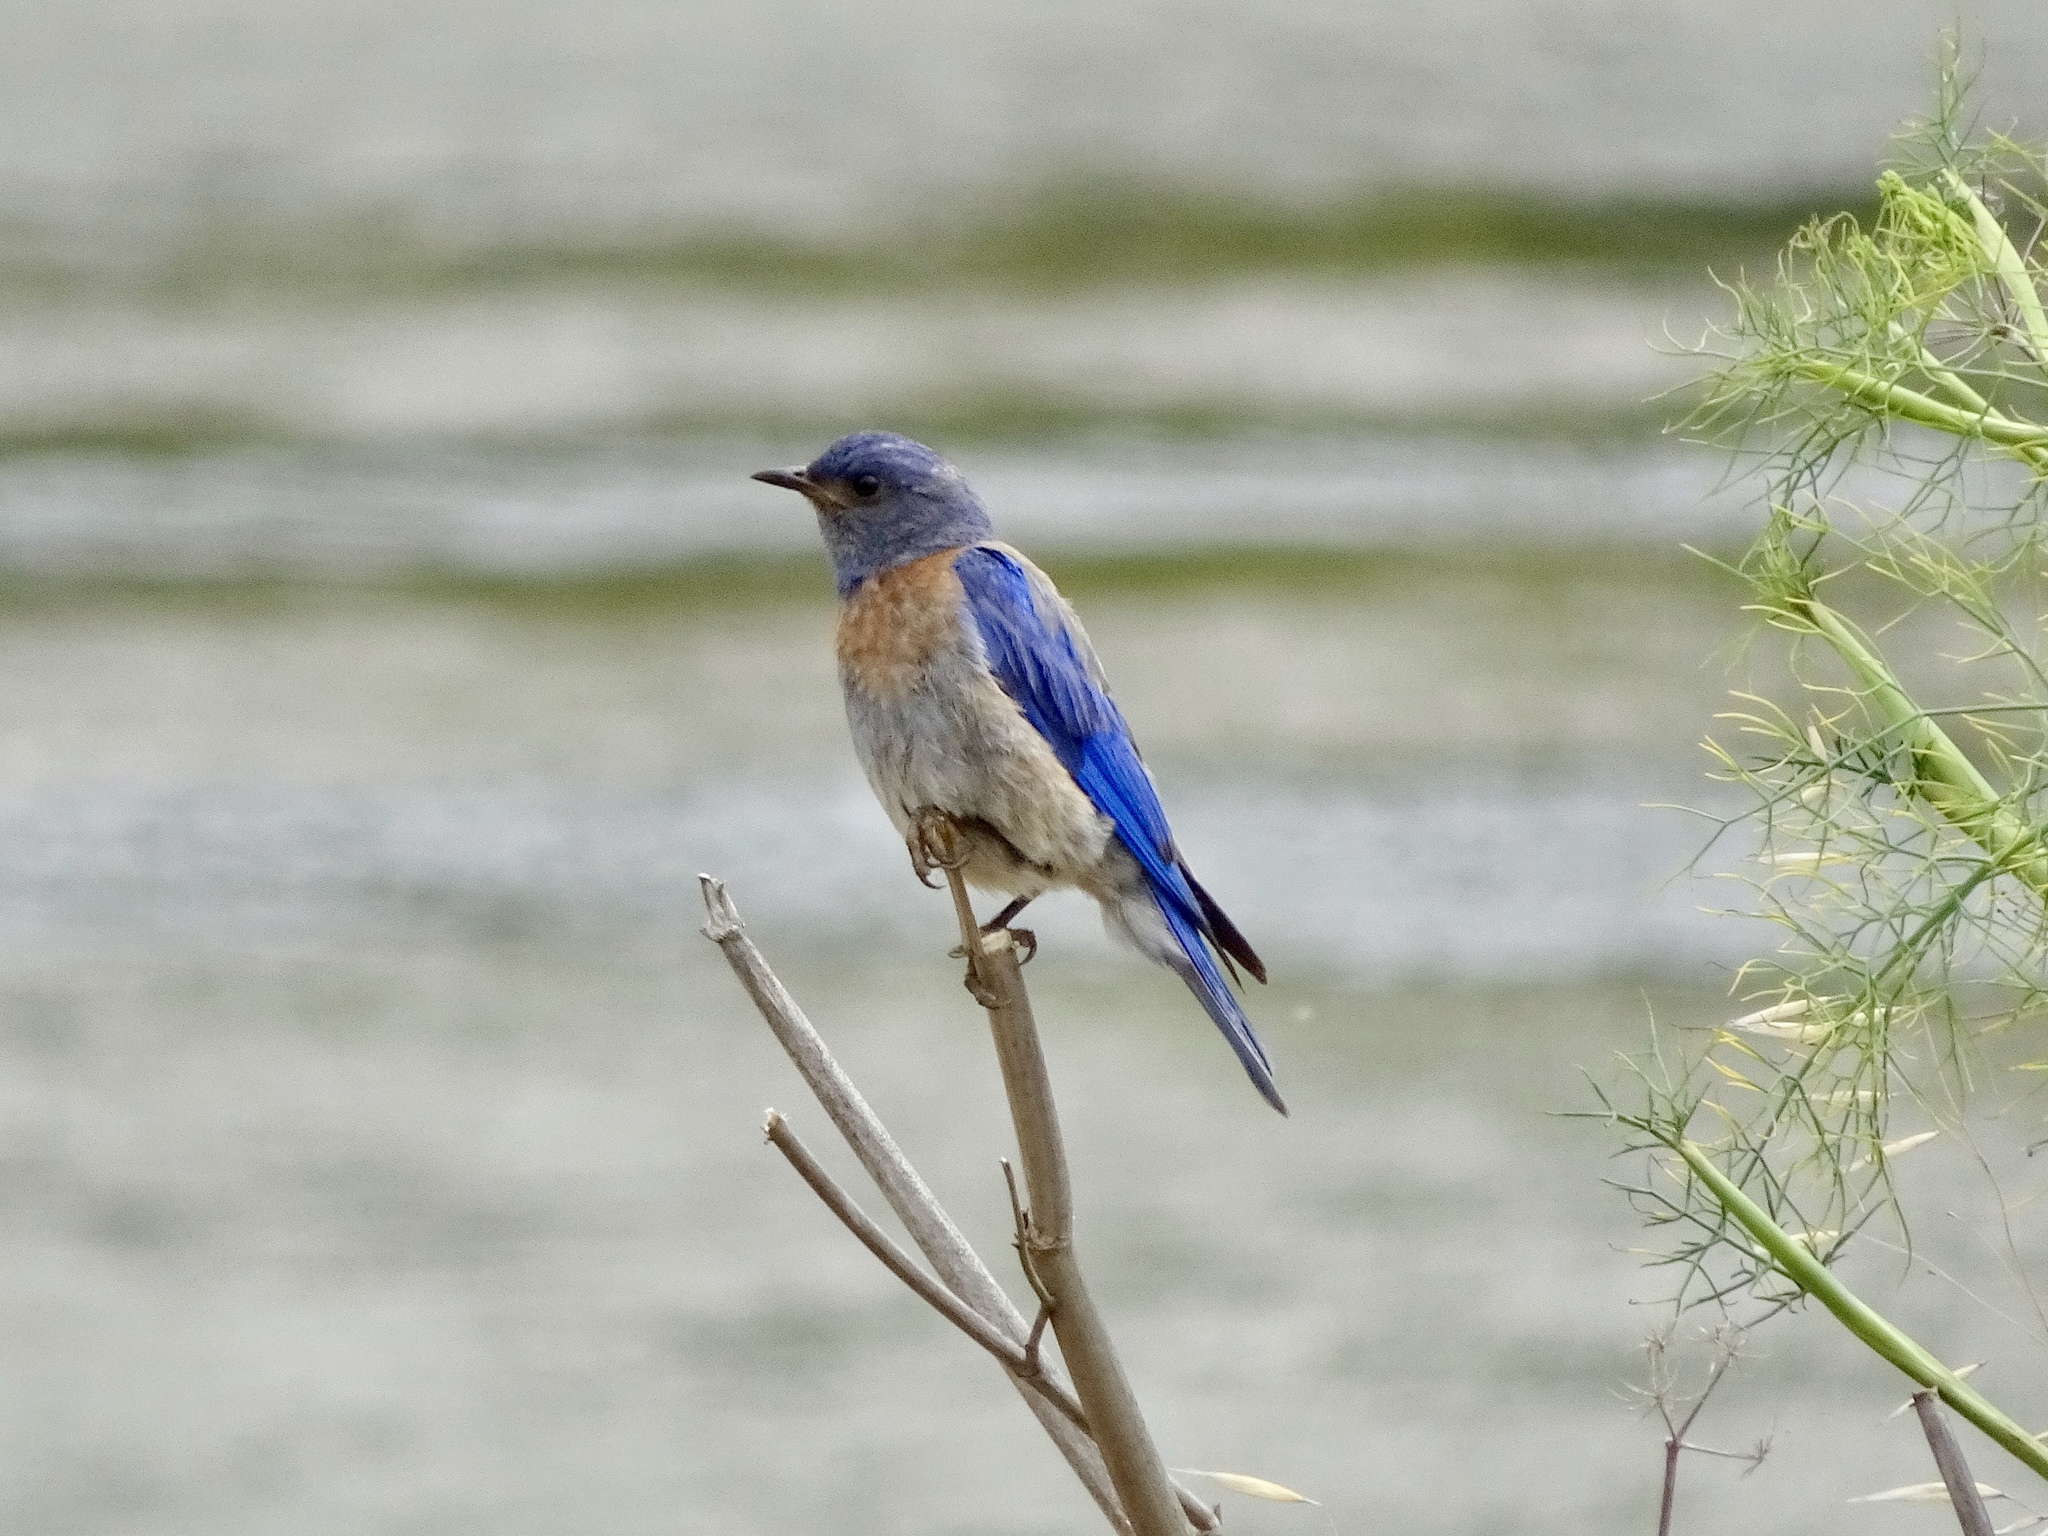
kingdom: Animalia
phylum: Chordata
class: Aves
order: Passeriformes
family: Turdidae
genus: Sialia
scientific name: Sialia mexicana
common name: Western bluebird
